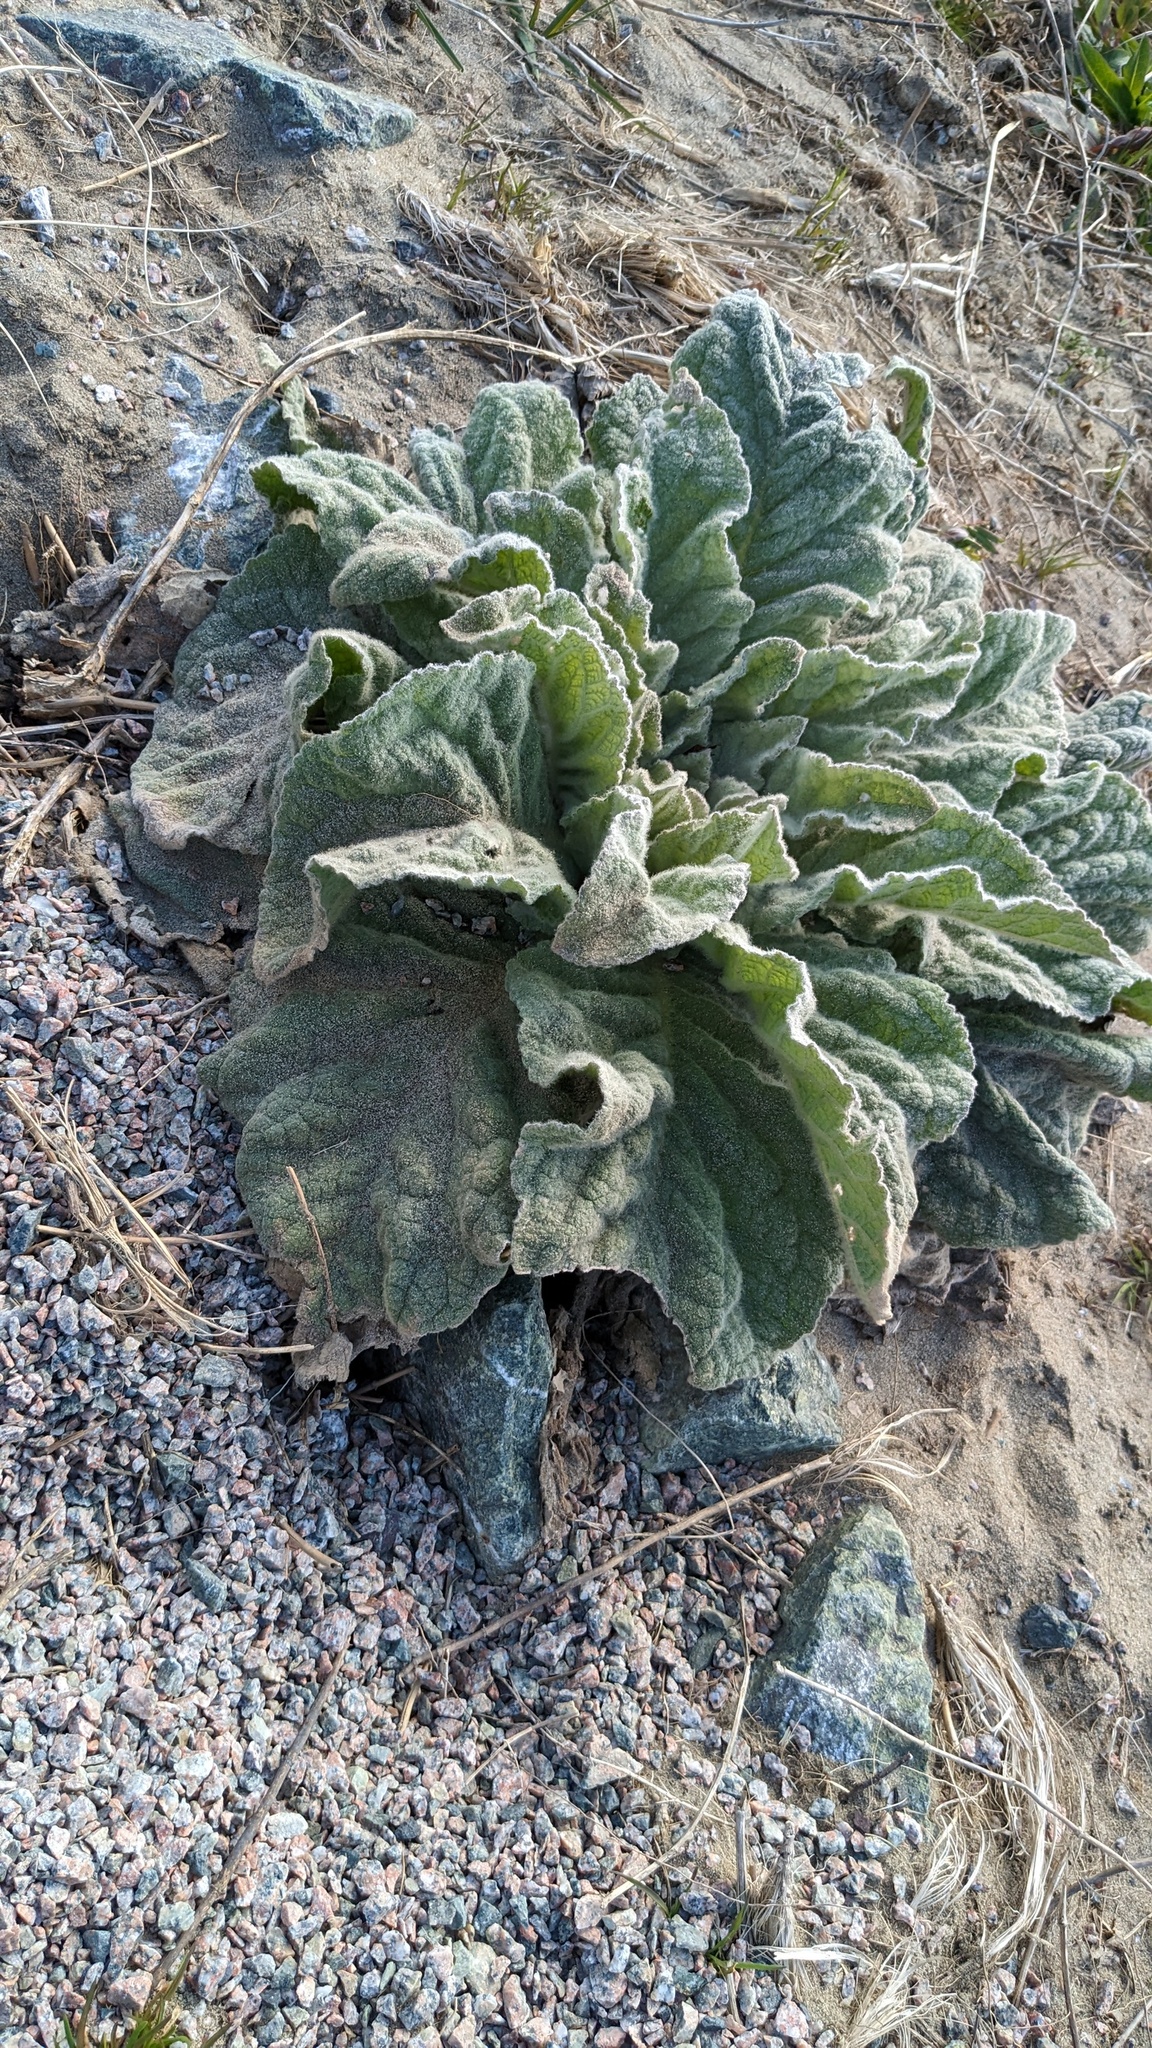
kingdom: Plantae
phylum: Tracheophyta
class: Magnoliopsida
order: Lamiales
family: Scrophulariaceae
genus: Verbascum
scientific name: Verbascum thapsus
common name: Common mullein
